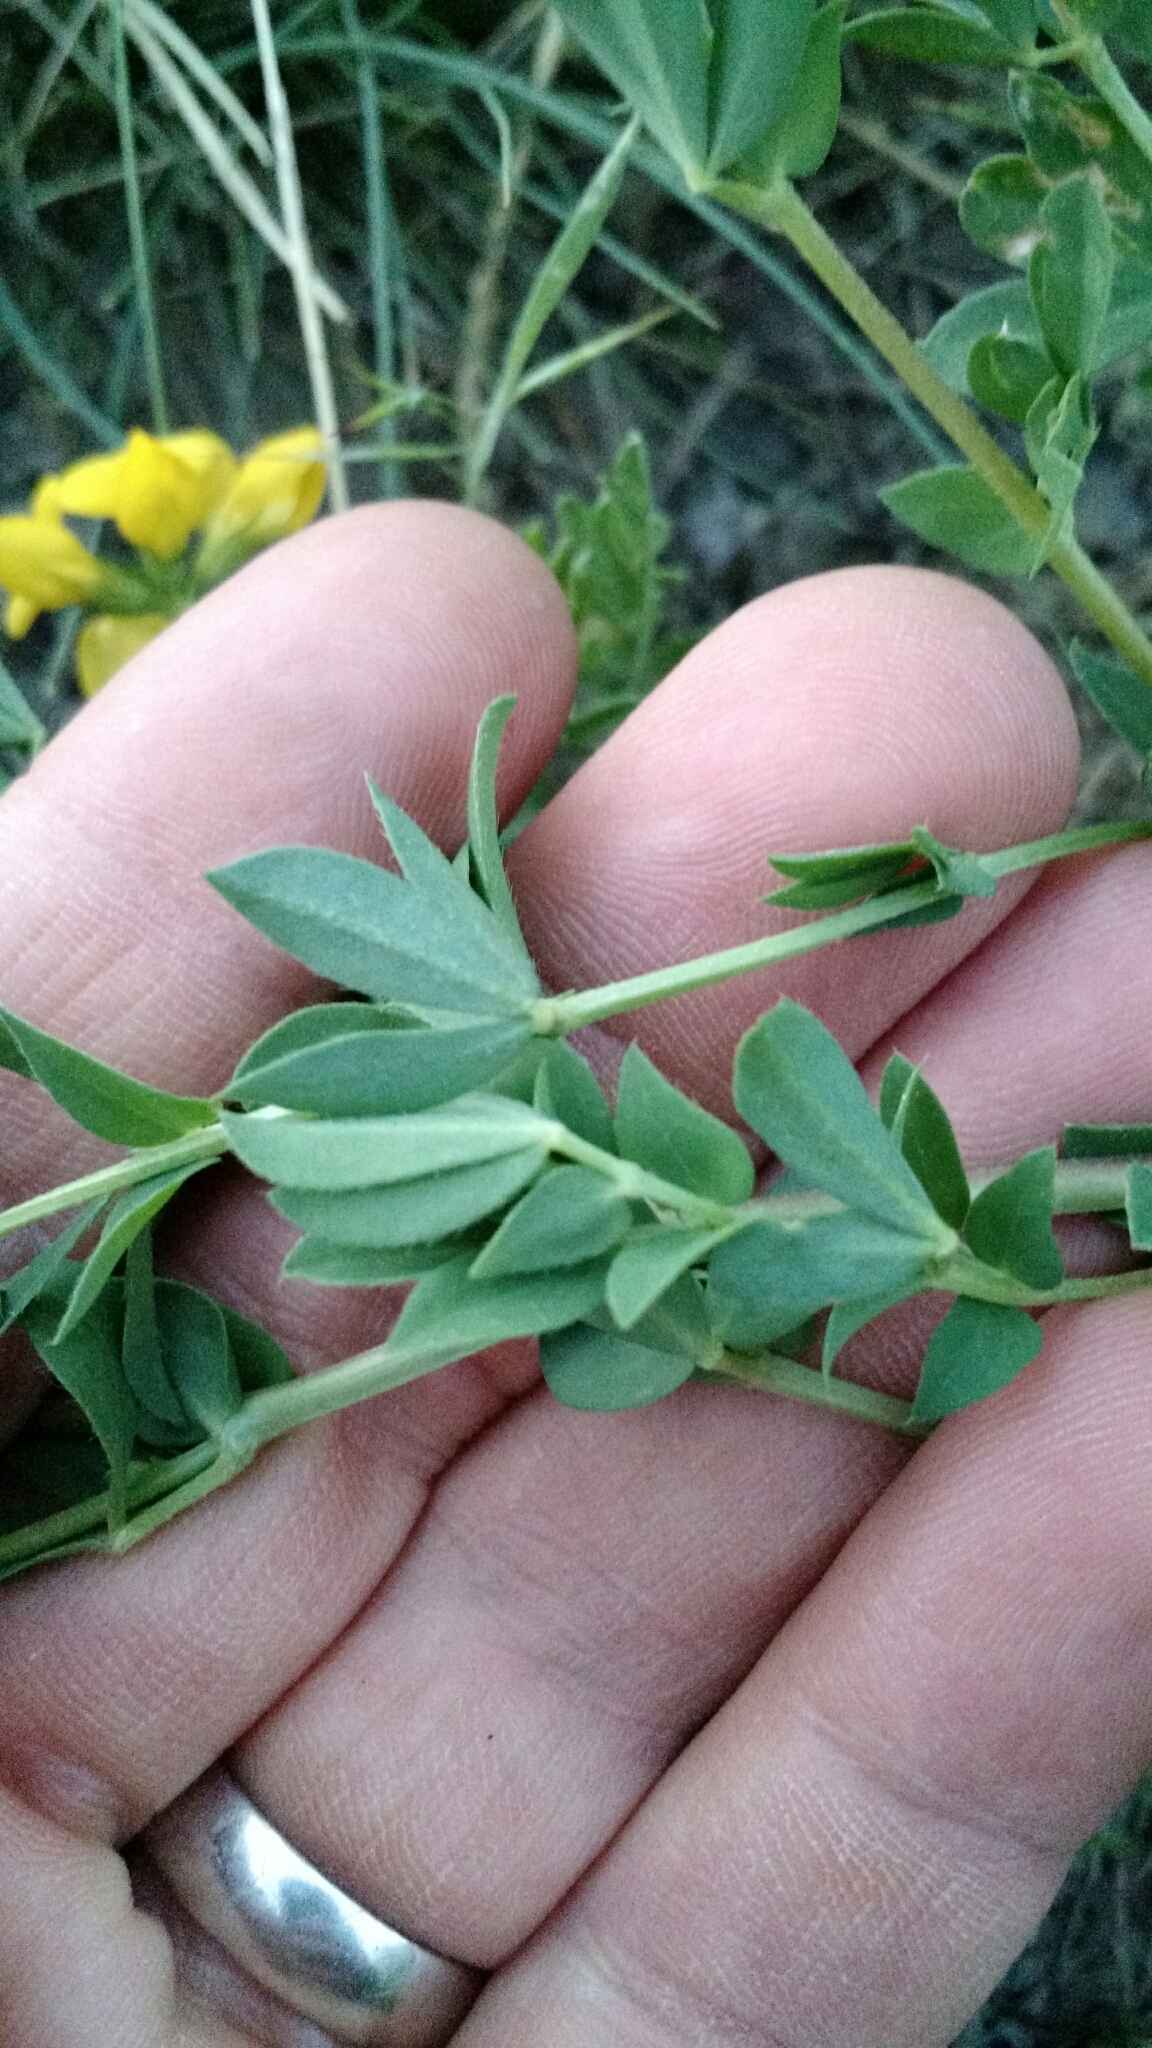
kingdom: Plantae
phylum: Tracheophyta
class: Magnoliopsida
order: Fabales
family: Fabaceae
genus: Lotus
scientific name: Lotus corniculatus
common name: Common bird's-foot-trefoil
